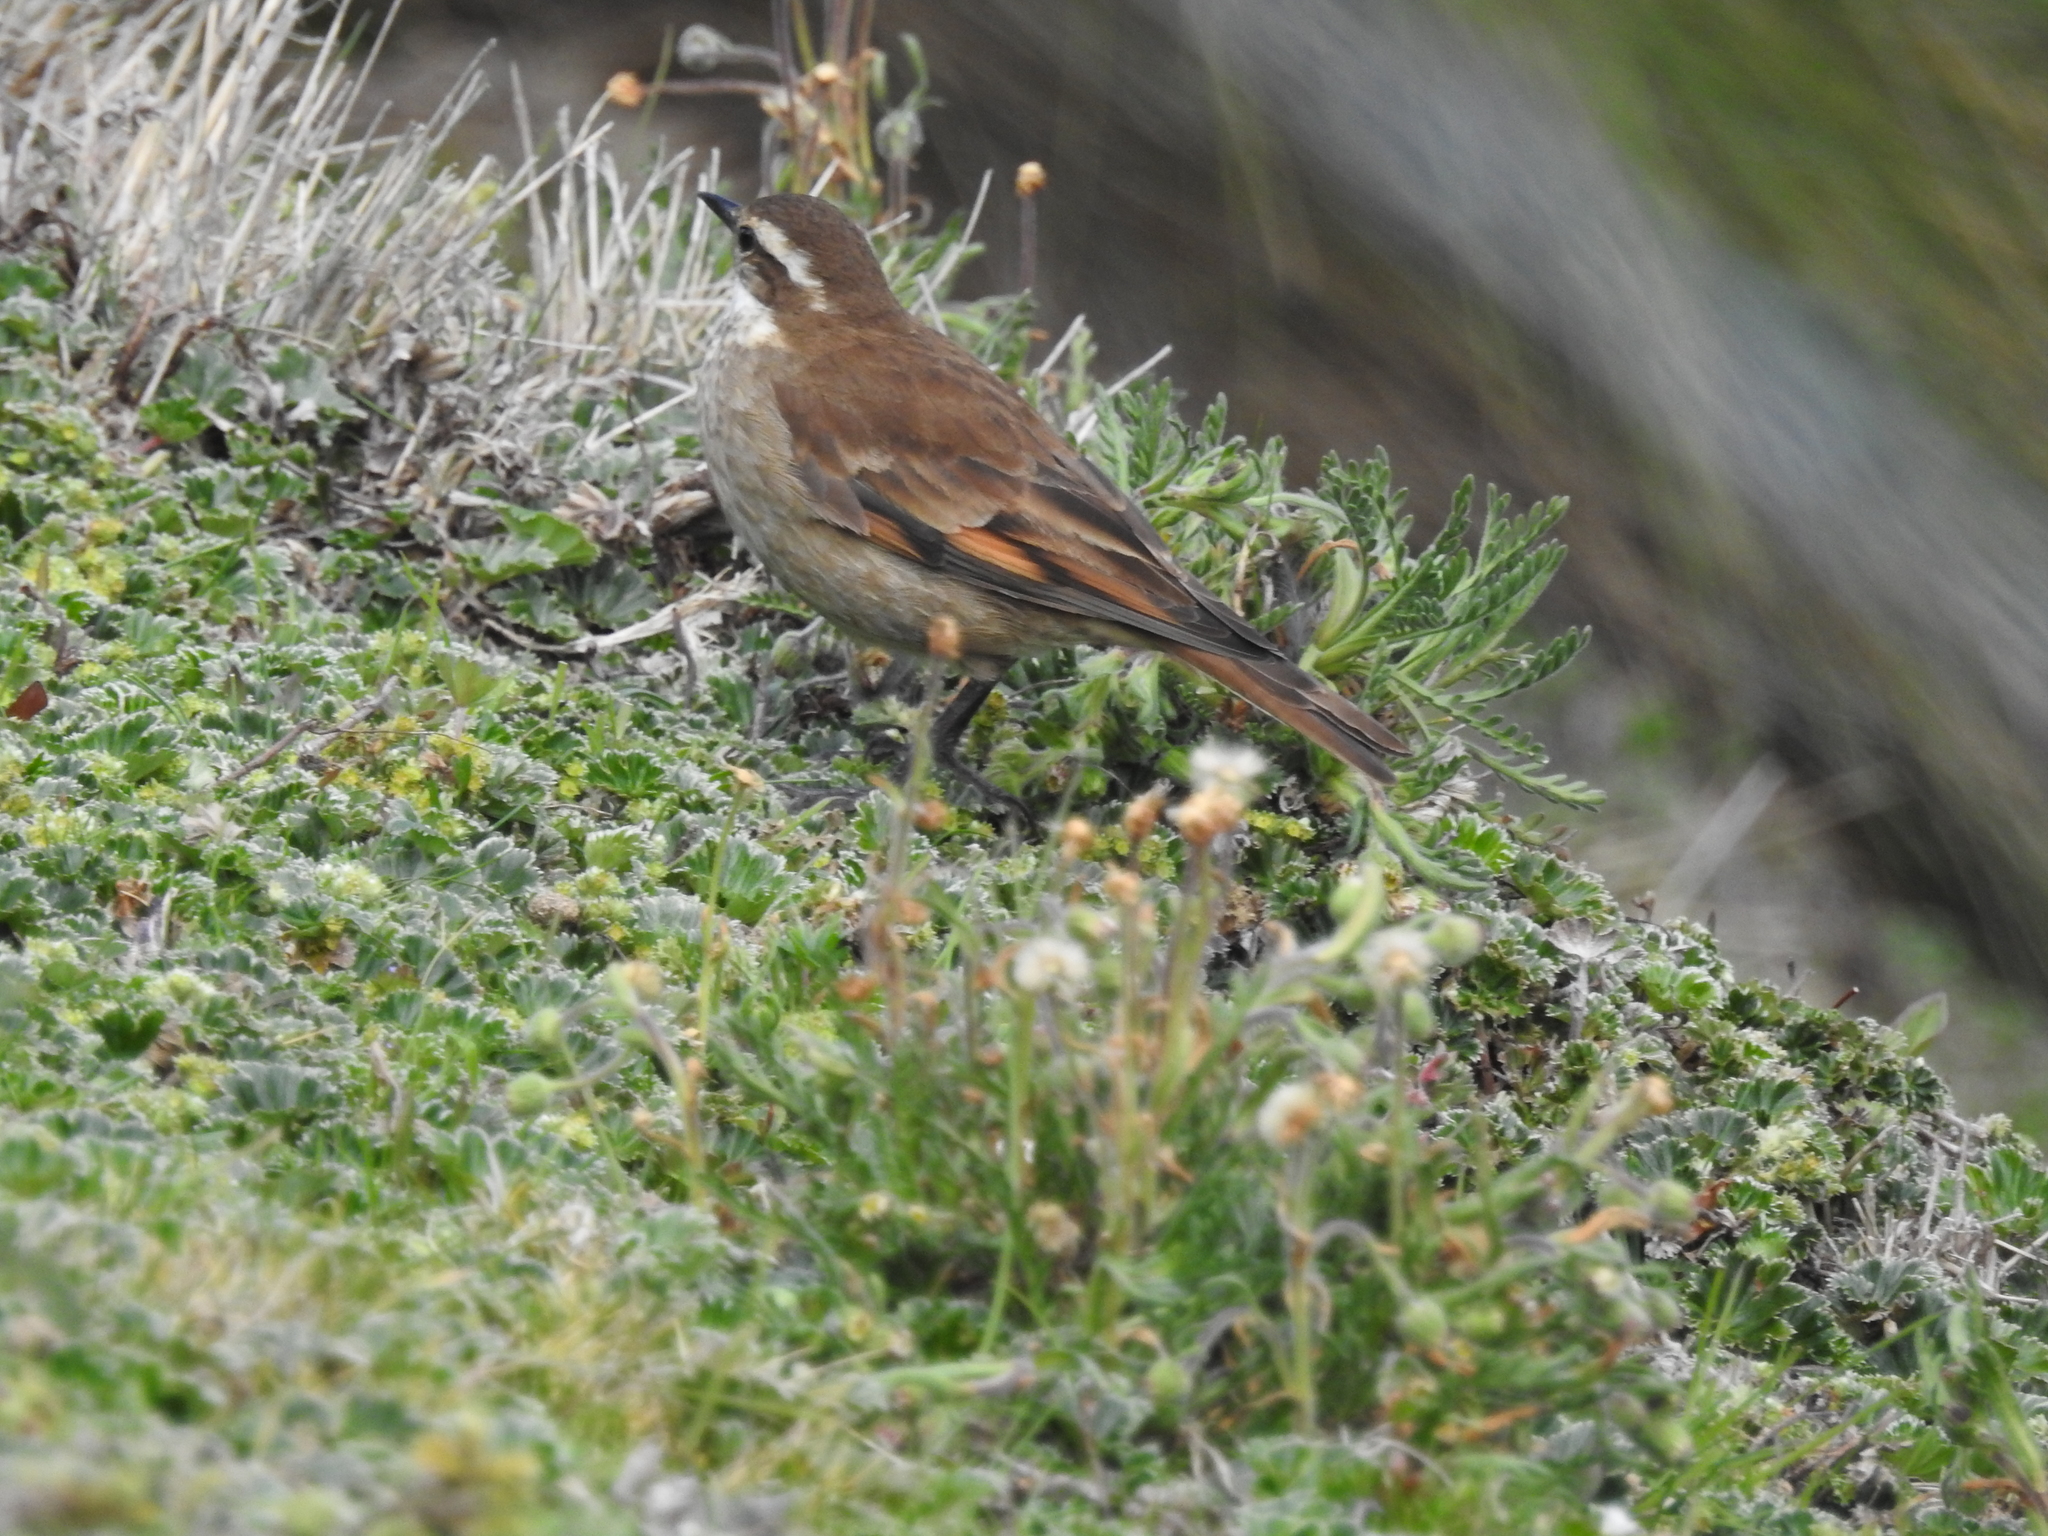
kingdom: Animalia
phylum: Chordata
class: Aves
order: Passeriformes
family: Furnariidae
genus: Cinclodes
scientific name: Cinclodes albidiventris
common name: Chestnut-winged cinclodes
